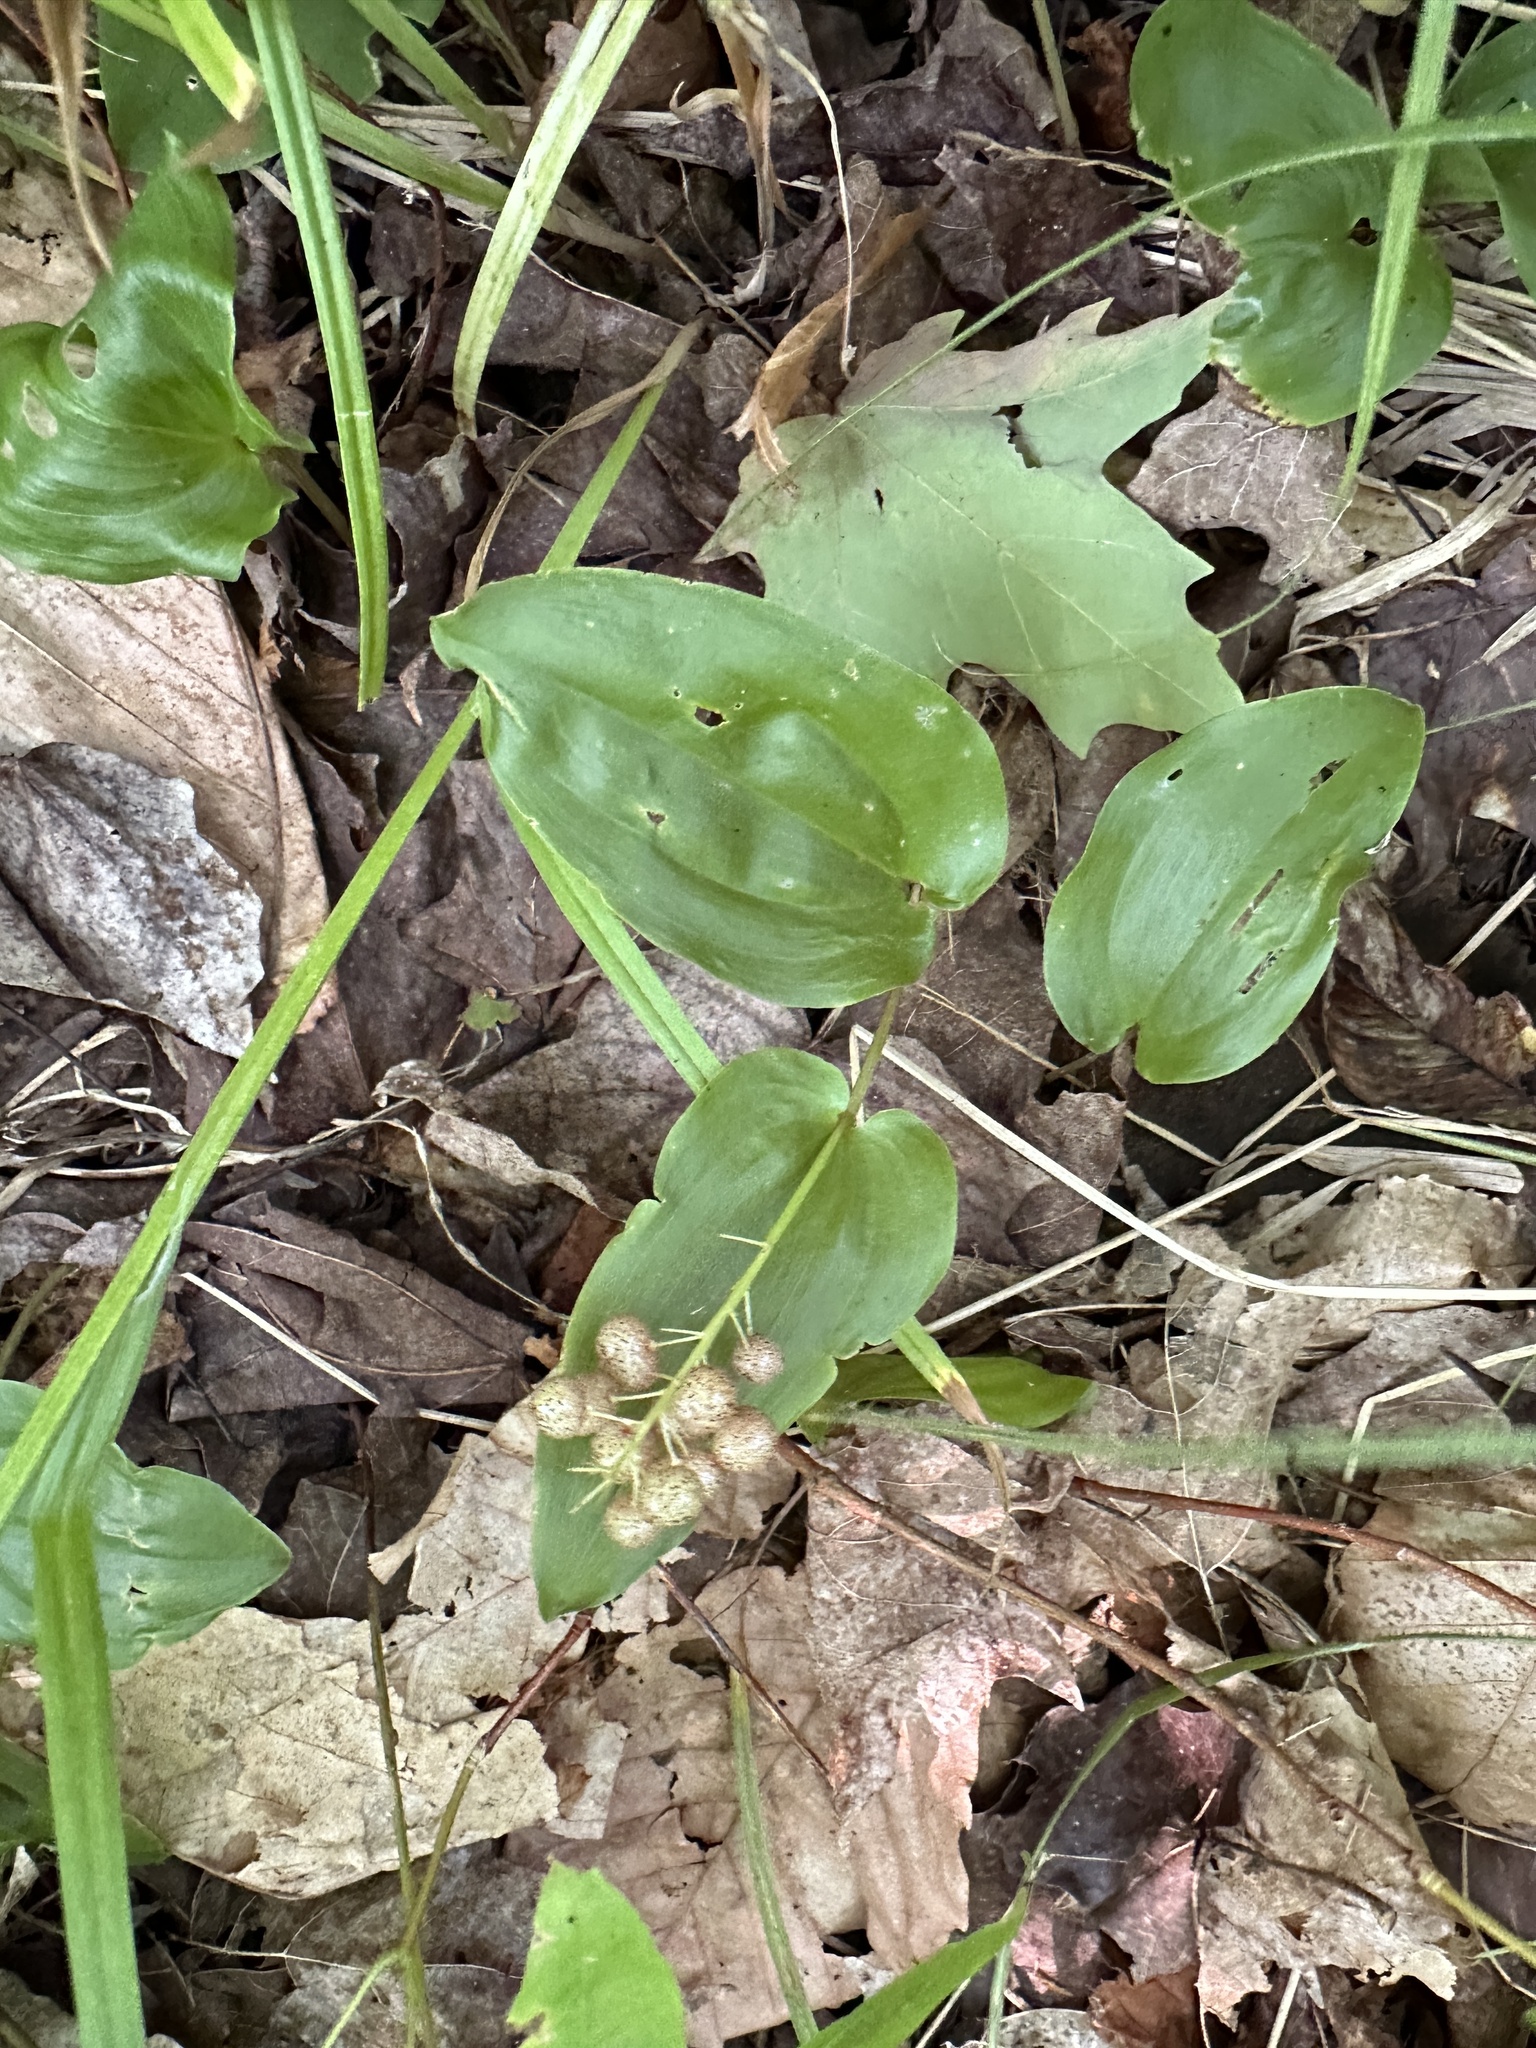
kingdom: Plantae
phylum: Tracheophyta
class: Liliopsida
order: Asparagales
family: Asparagaceae
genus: Maianthemum
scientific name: Maianthemum canadense
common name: False lily-of-the-valley
